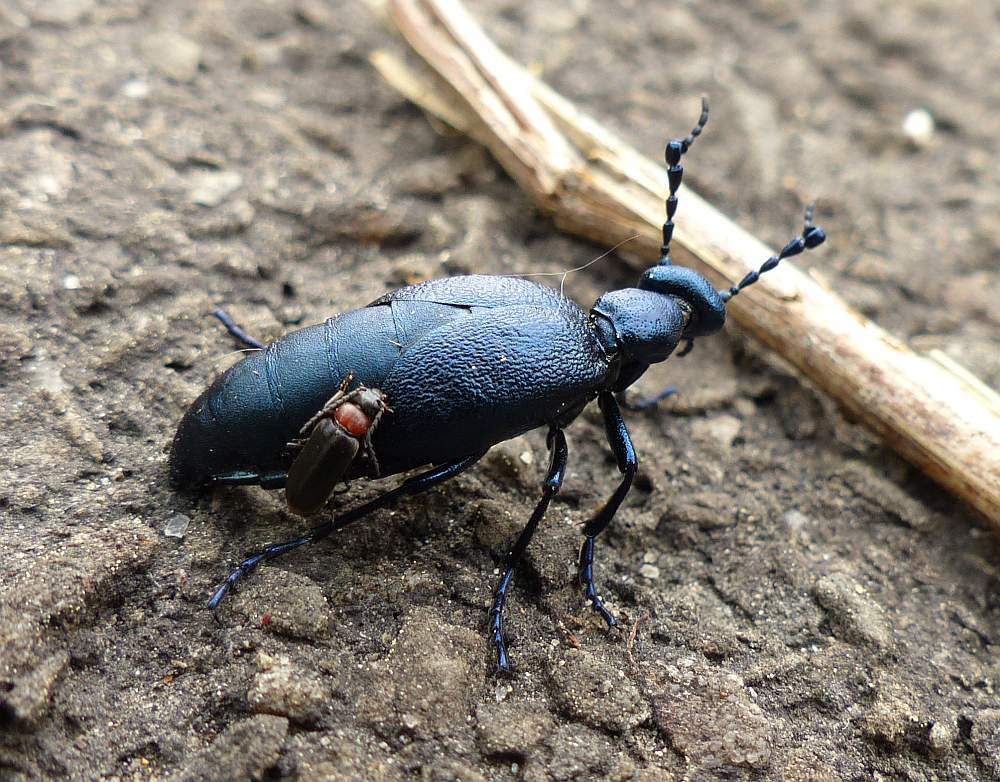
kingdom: Animalia
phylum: Arthropoda
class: Insecta
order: Coleoptera
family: Pyrochroidae
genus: Pedilus
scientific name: Pedilus terminalis
